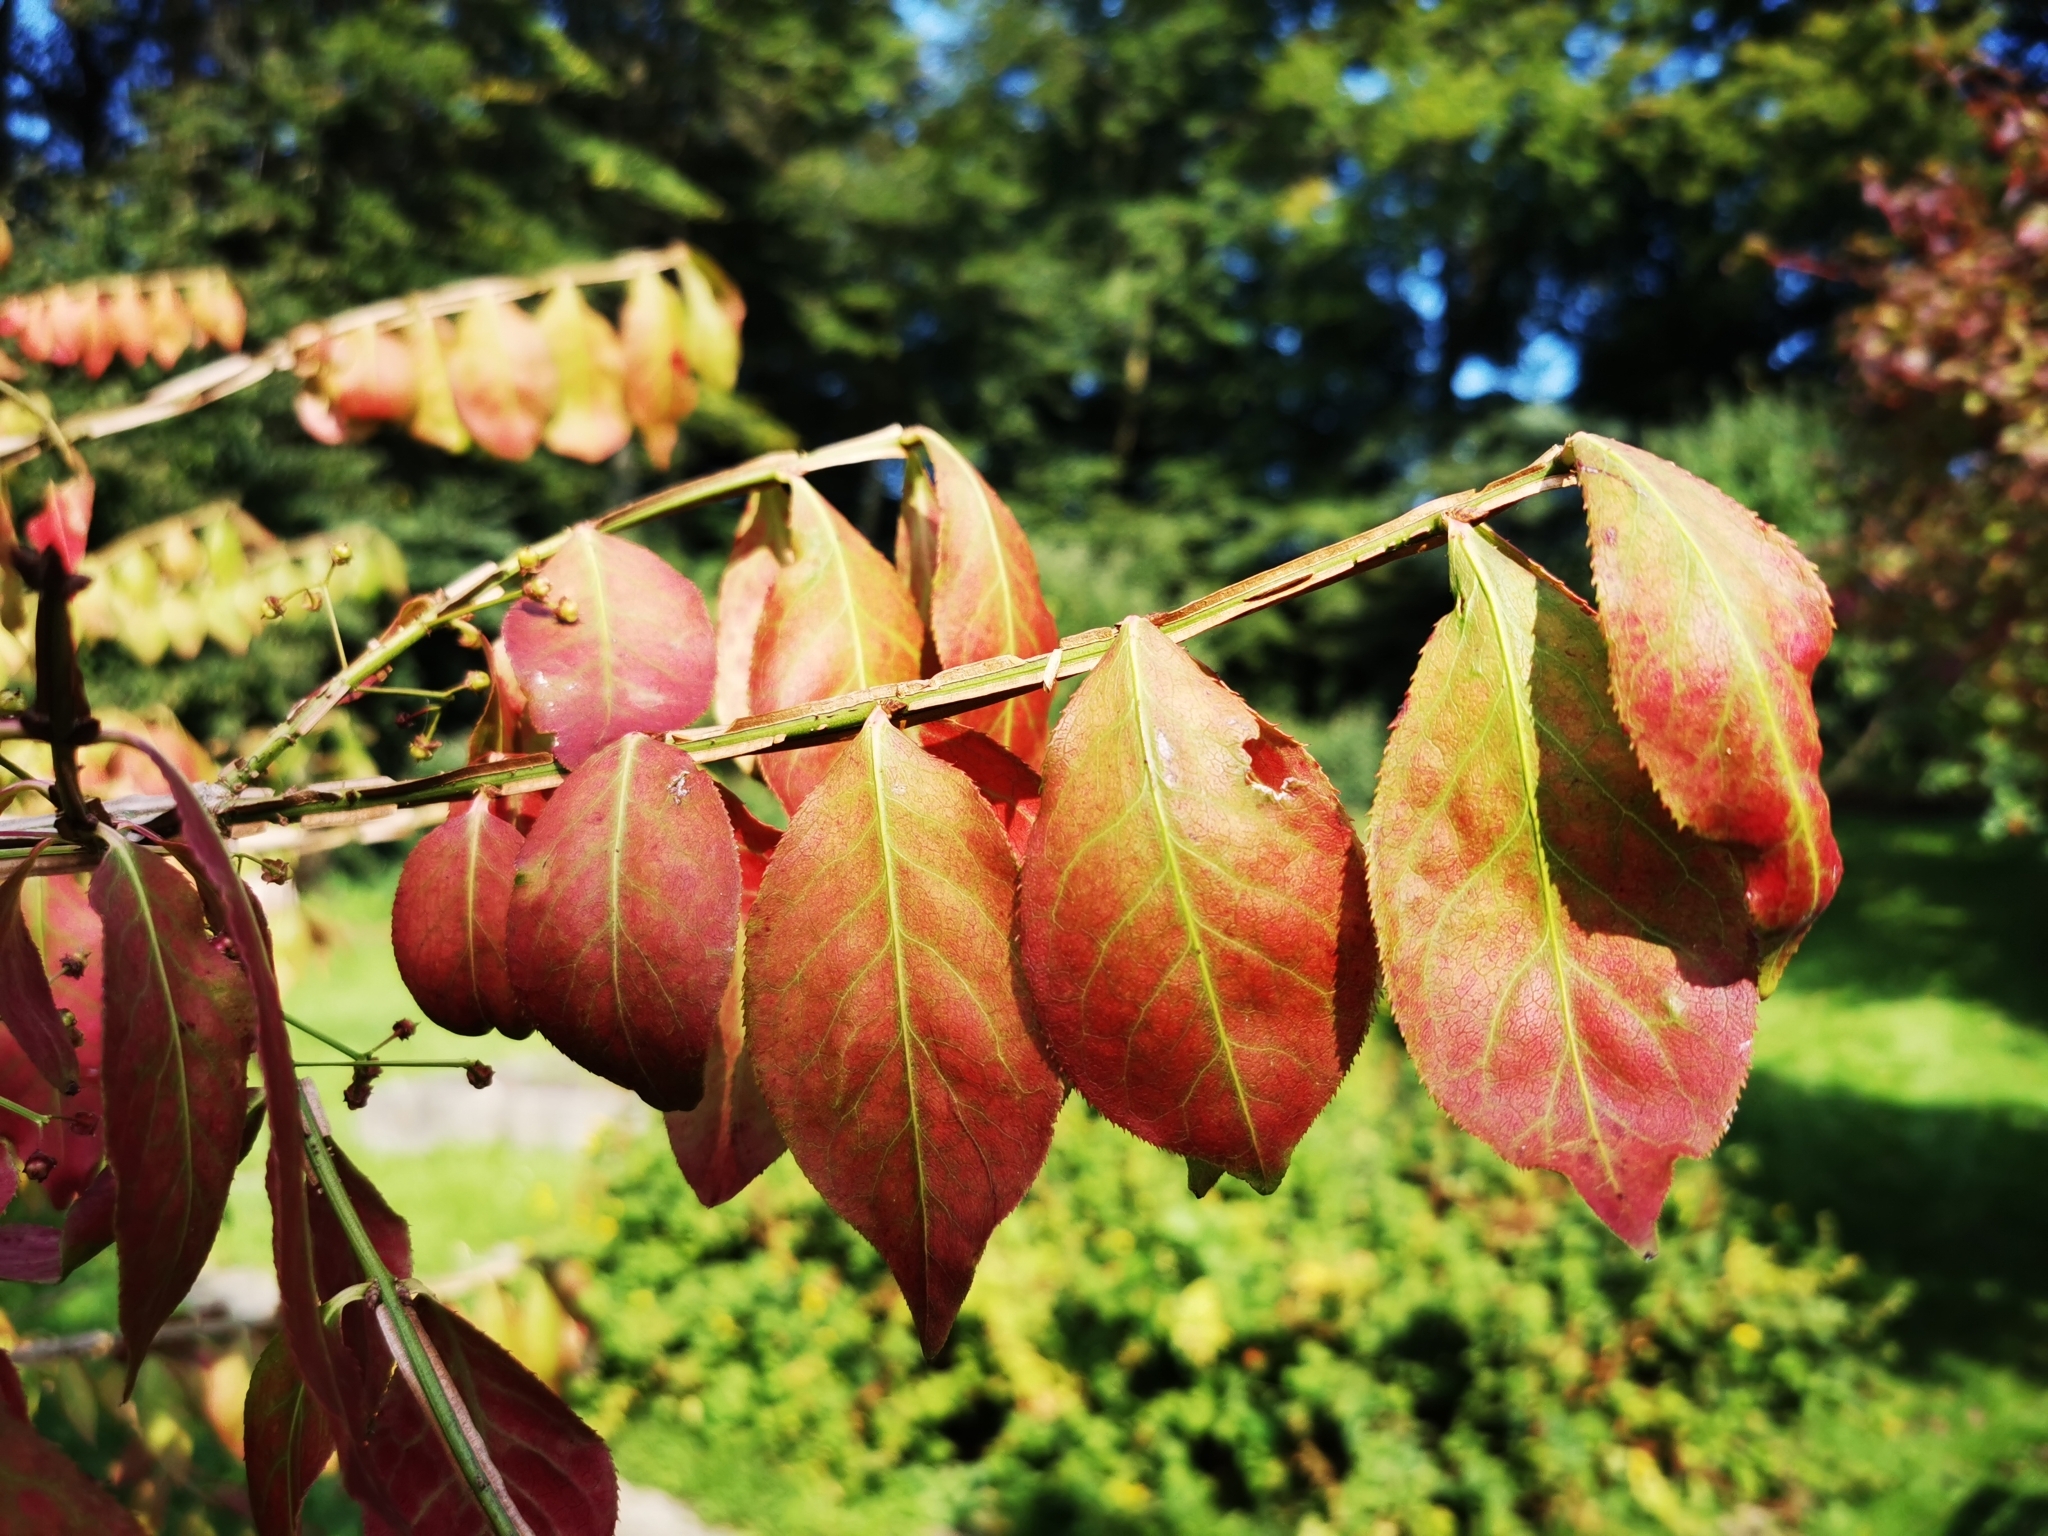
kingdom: Plantae
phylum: Tracheophyta
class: Magnoliopsida
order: Celastrales
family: Celastraceae
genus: Euonymus
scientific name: Euonymus alatus
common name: Winged euonymus
